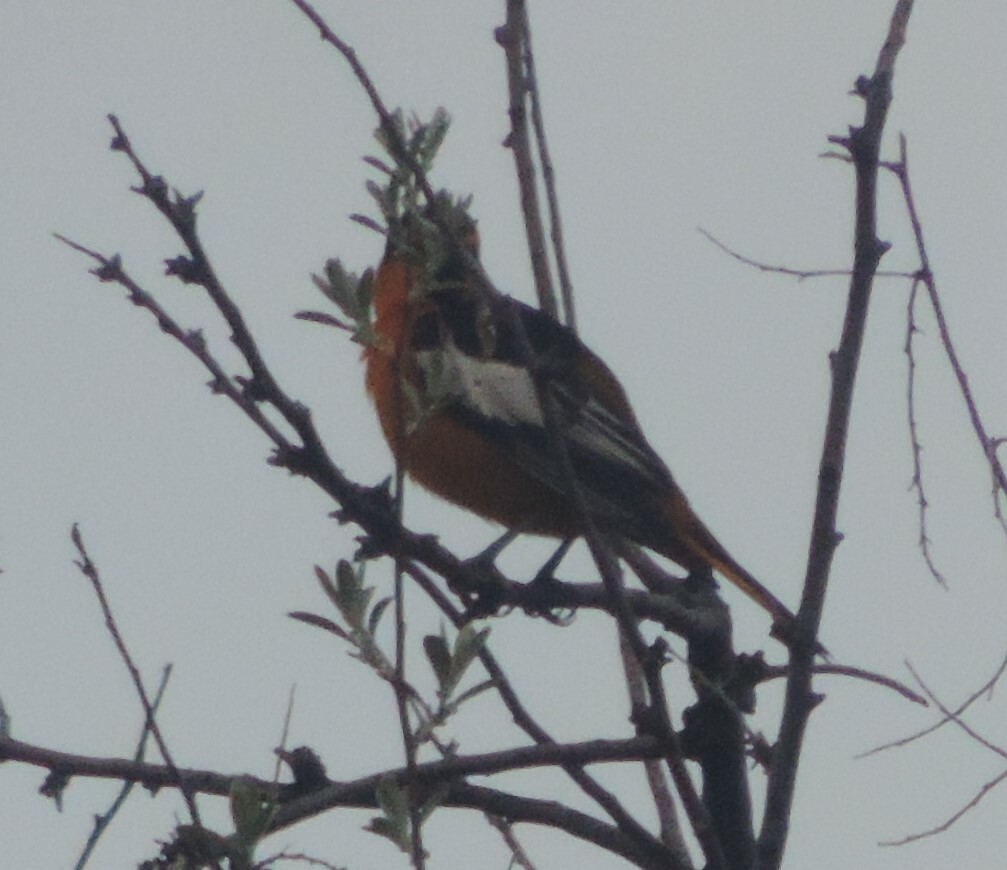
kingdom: Animalia
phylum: Chordata
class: Aves
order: Passeriformes
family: Icteridae
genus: Icterus
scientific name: Icterus bullockii
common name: Bullock's oriole
